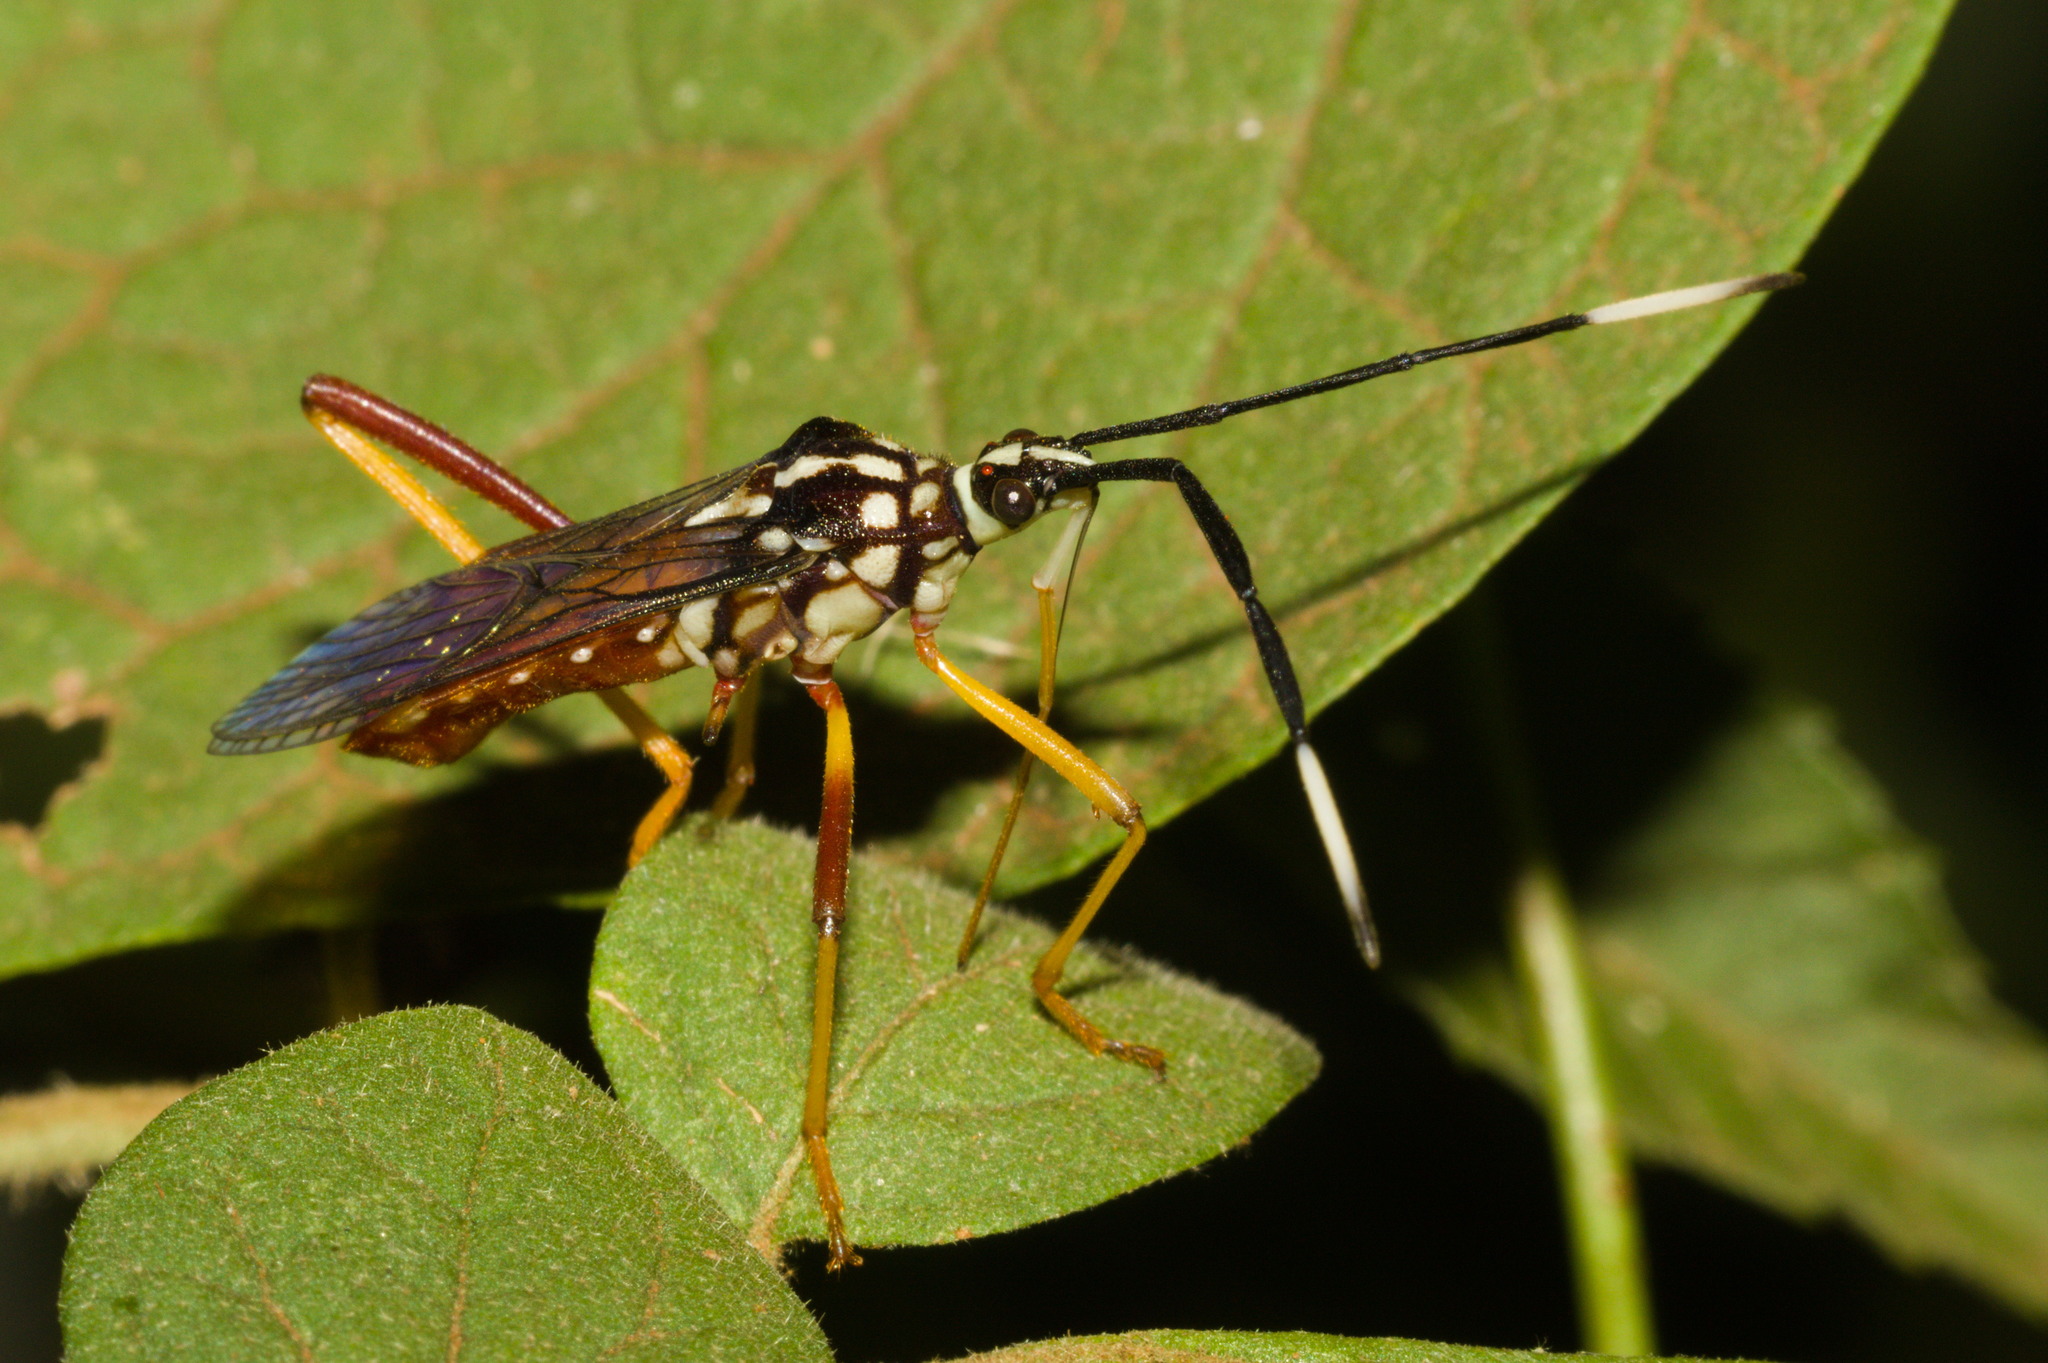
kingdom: Animalia
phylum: Arthropoda
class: Insecta
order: Hemiptera
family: Coreidae
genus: Holhymenia
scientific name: Holhymenia histrio
